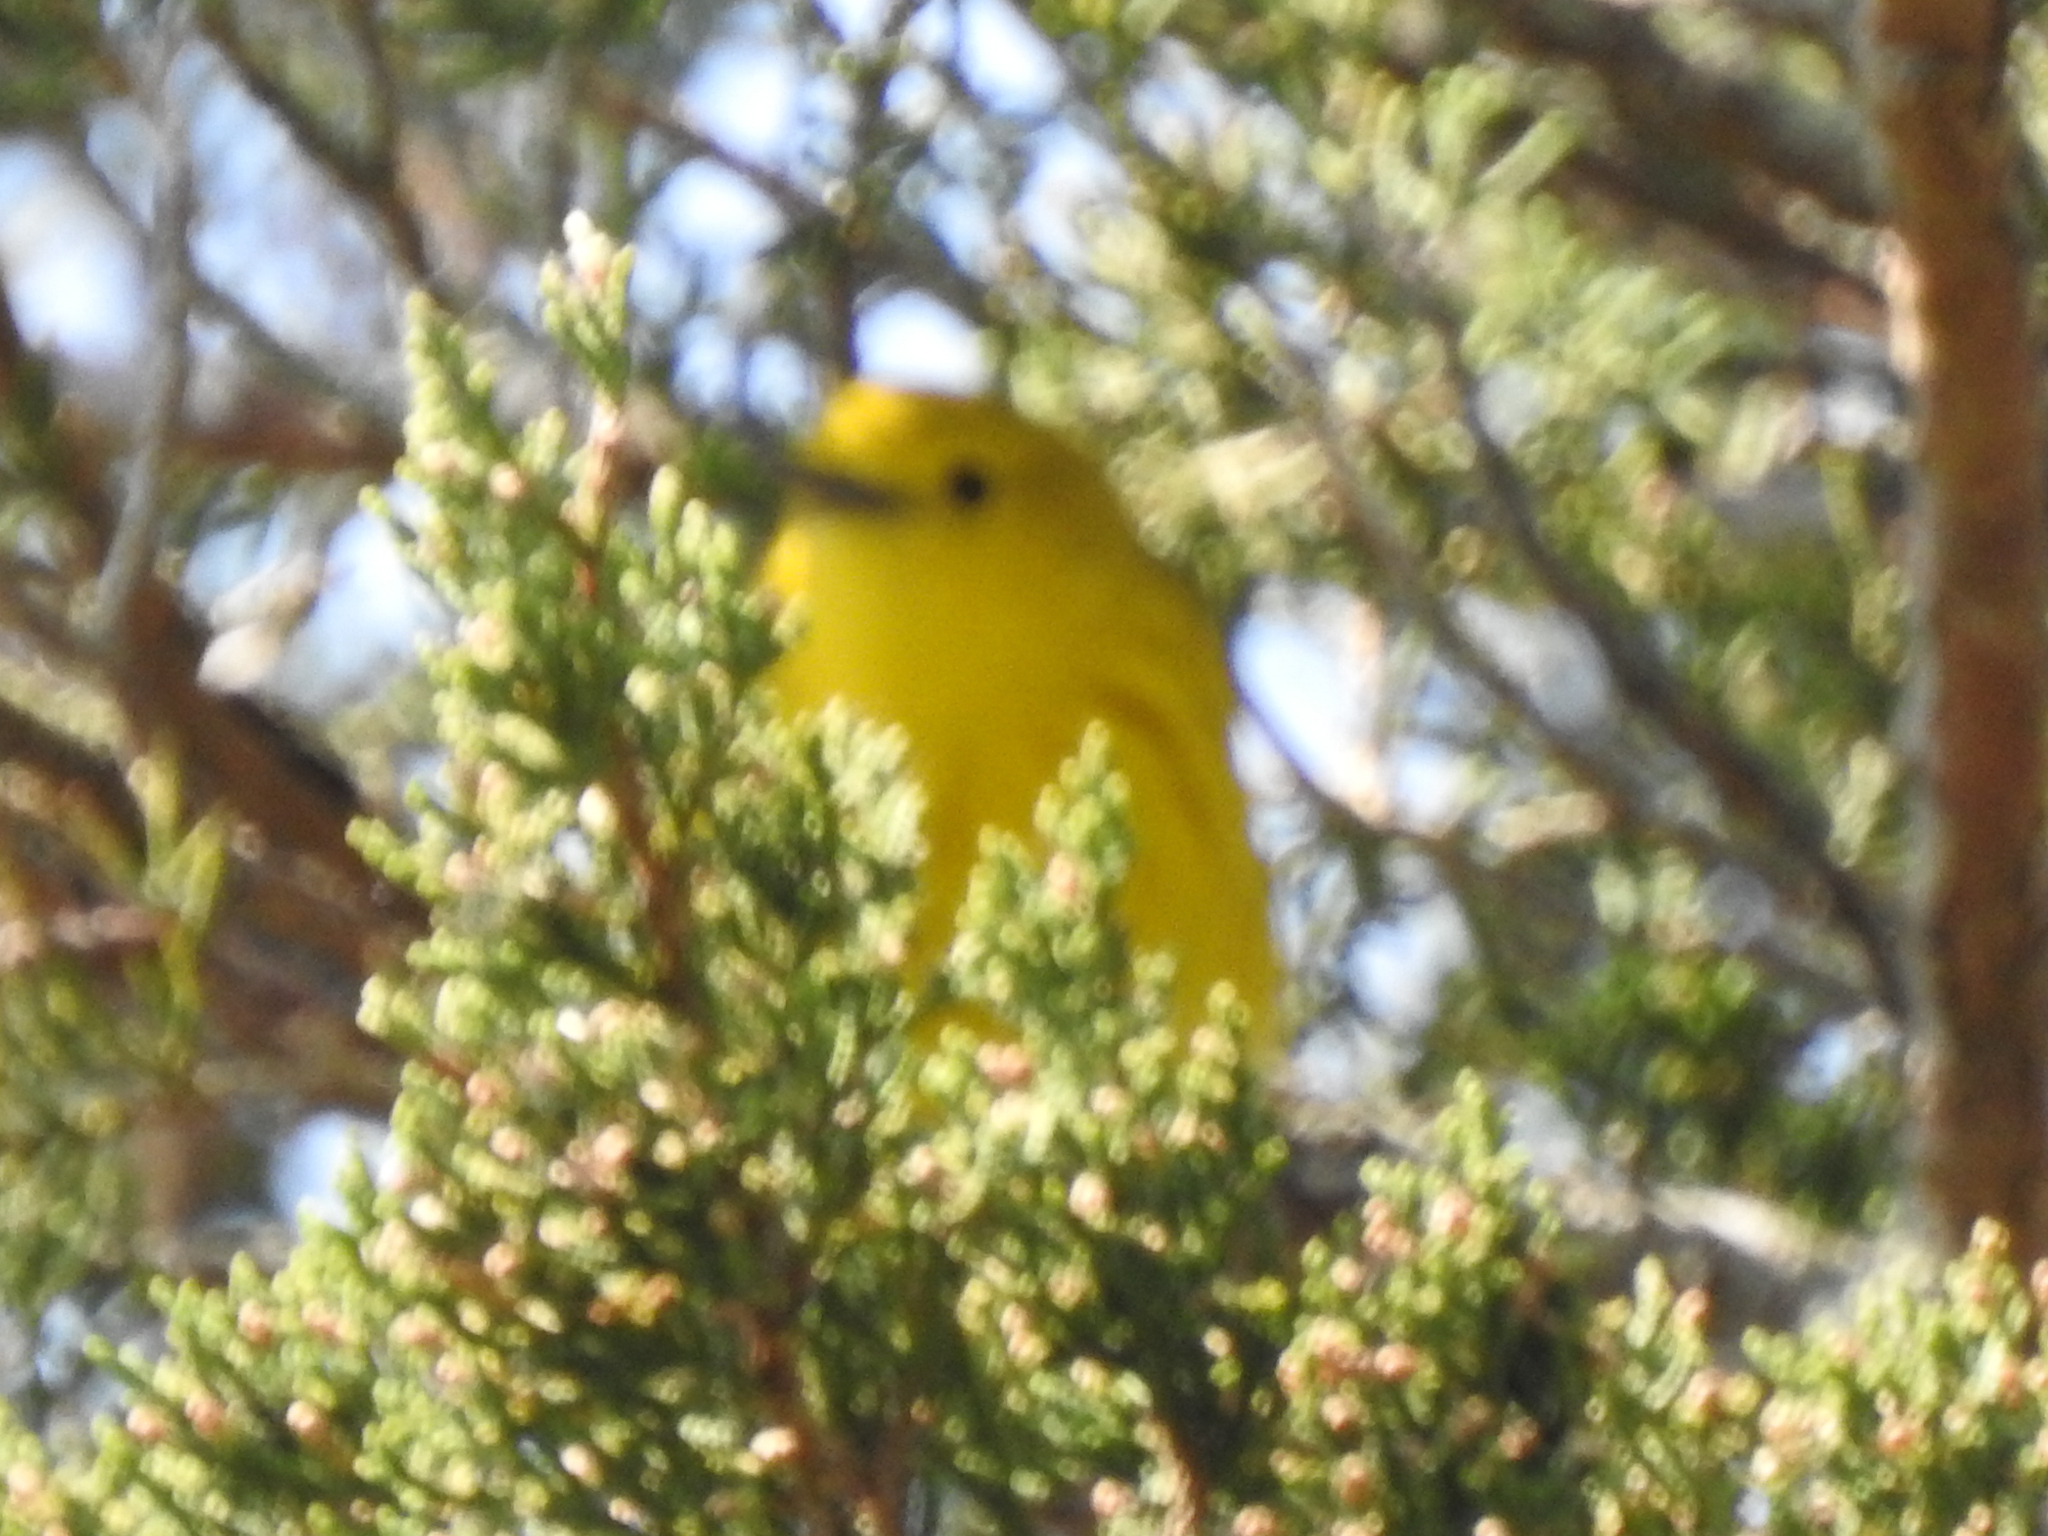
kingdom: Animalia
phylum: Chordata
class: Aves
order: Passeriformes
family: Parulidae
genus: Setophaga
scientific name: Setophaga petechia
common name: Yellow warbler
